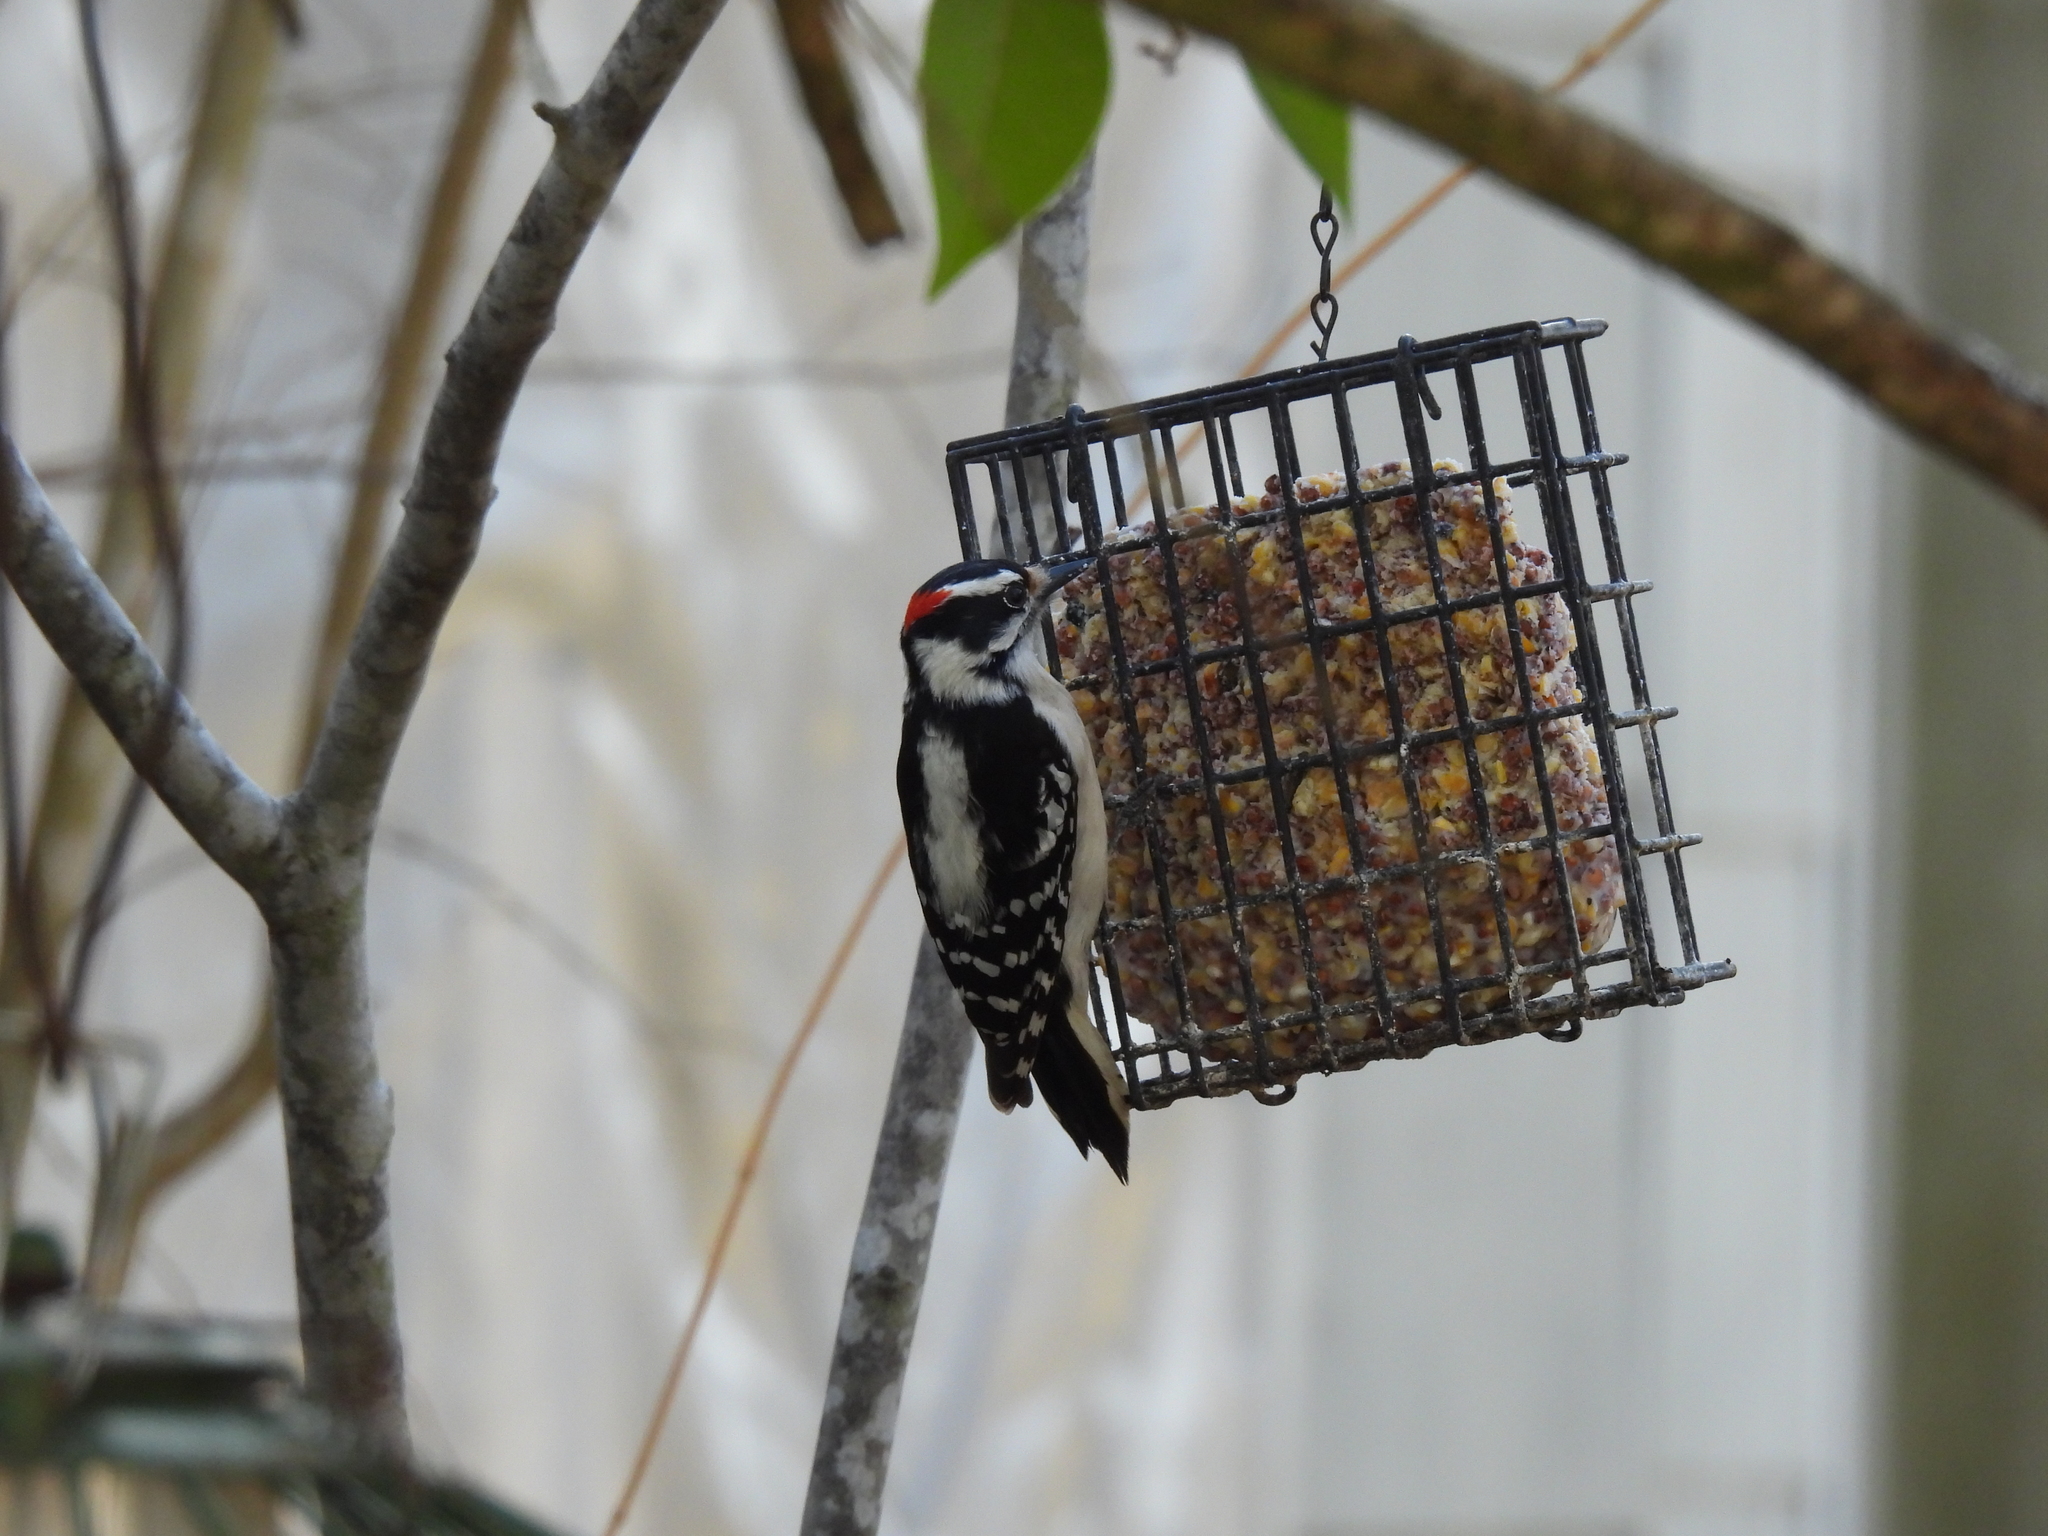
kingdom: Animalia
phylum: Chordata
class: Aves
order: Piciformes
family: Picidae
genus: Dryobates
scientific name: Dryobates pubescens
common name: Downy woodpecker
